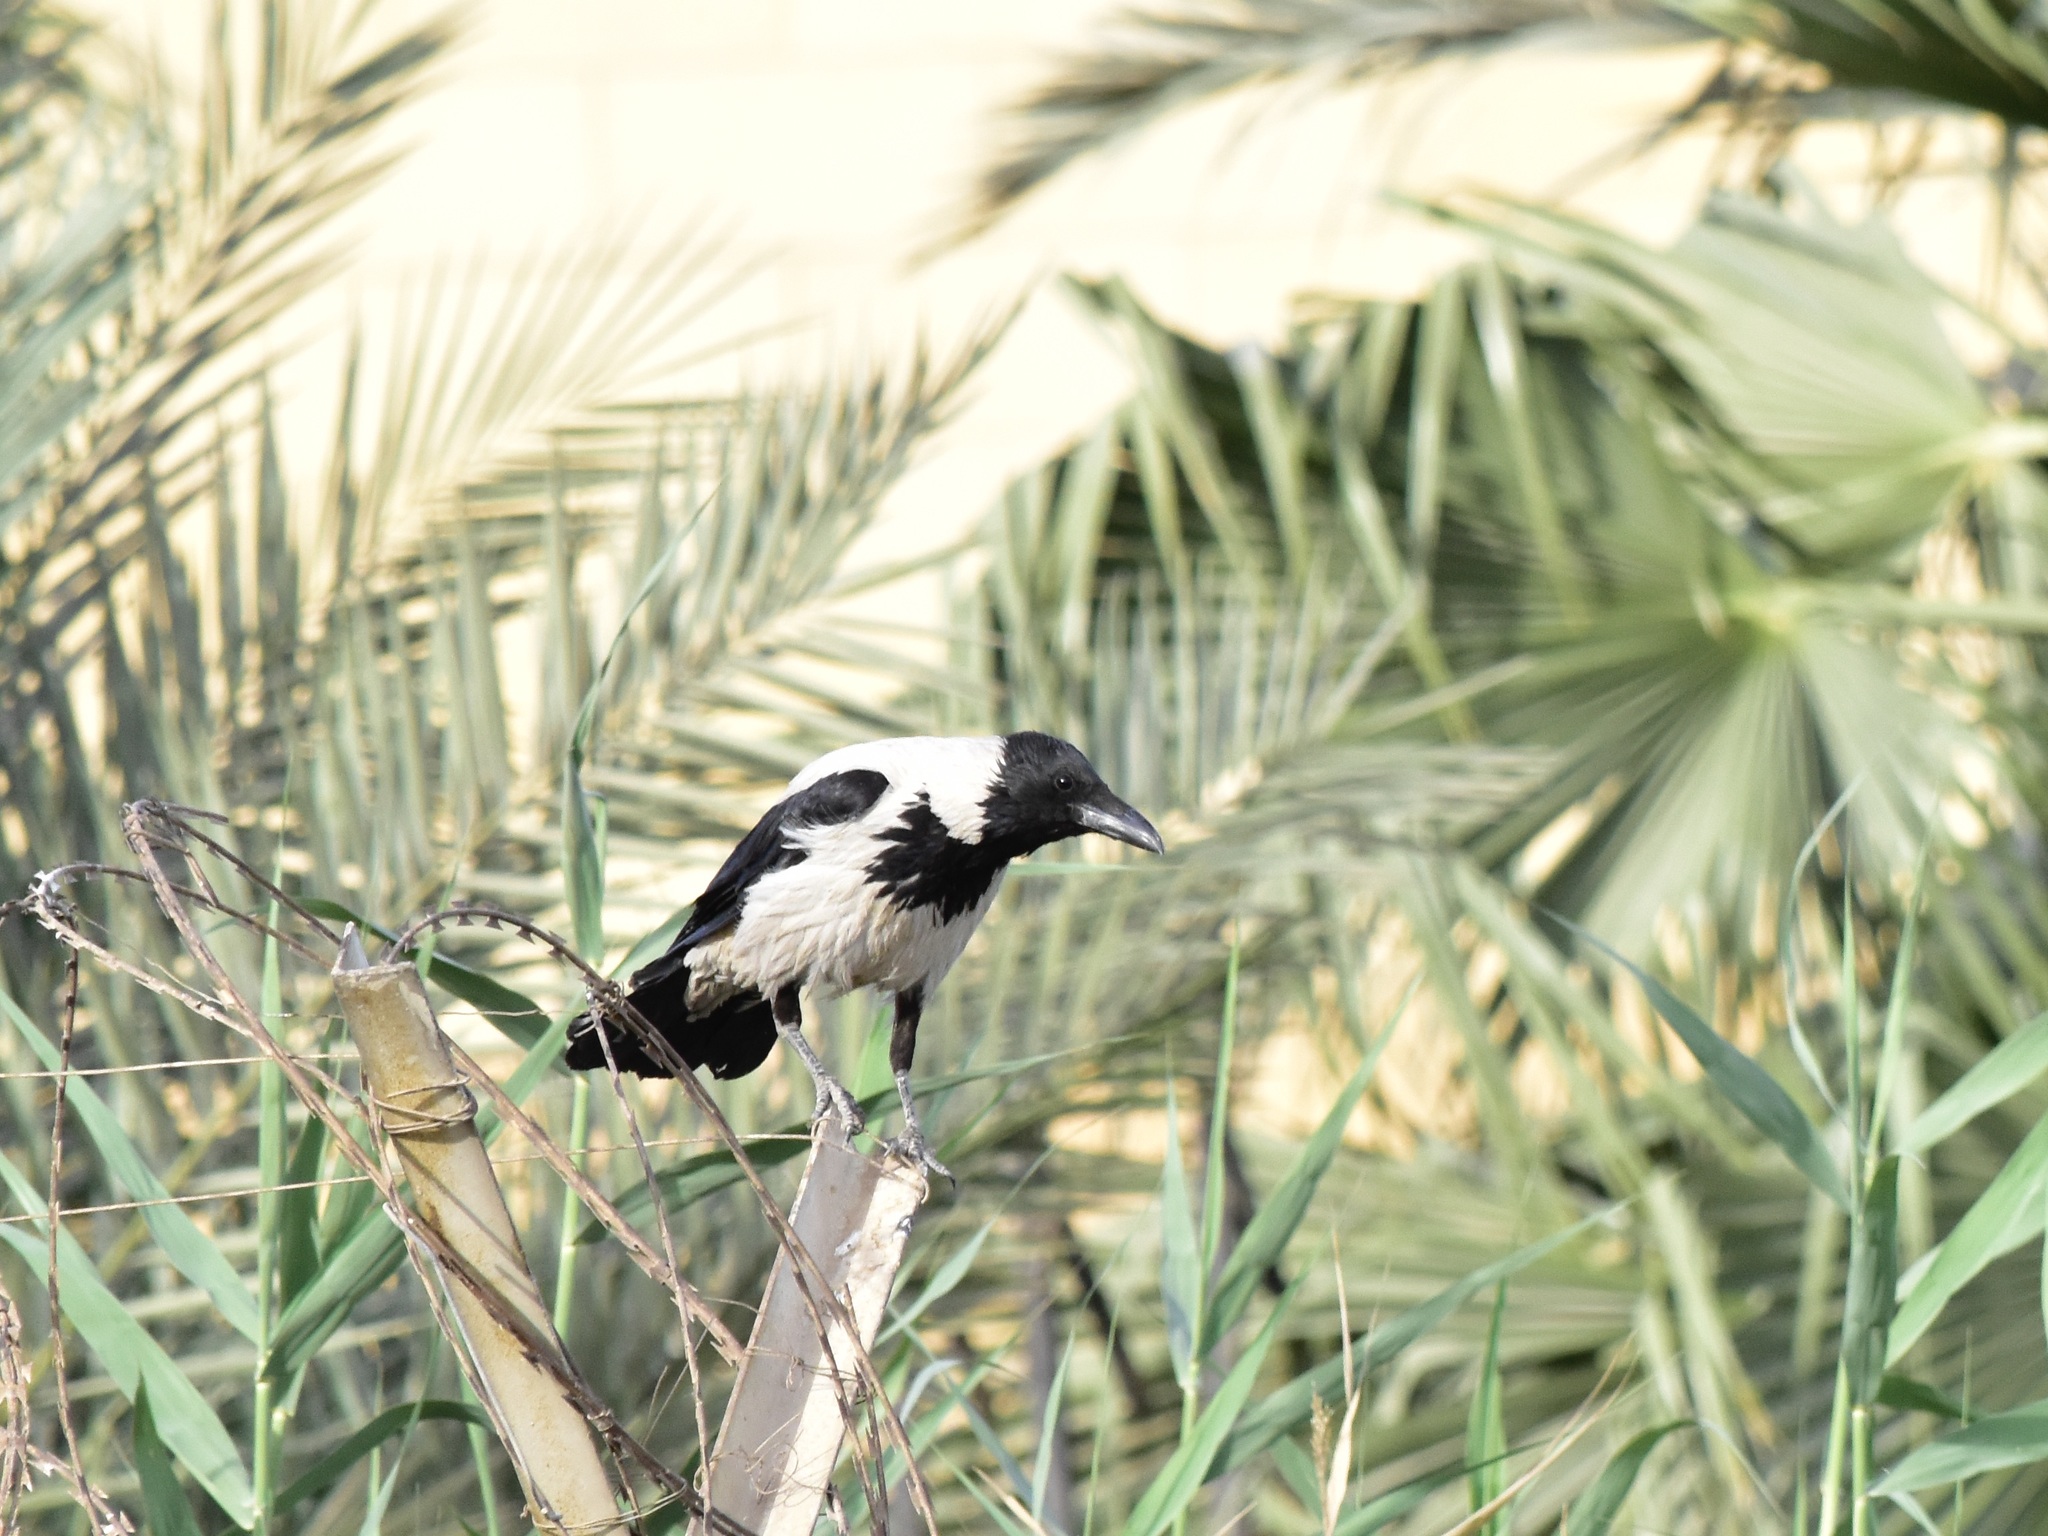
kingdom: Animalia
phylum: Chordata
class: Aves
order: Passeriformes
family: Corvidae
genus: Corvus
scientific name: Corvus cornix
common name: Hooded crow
